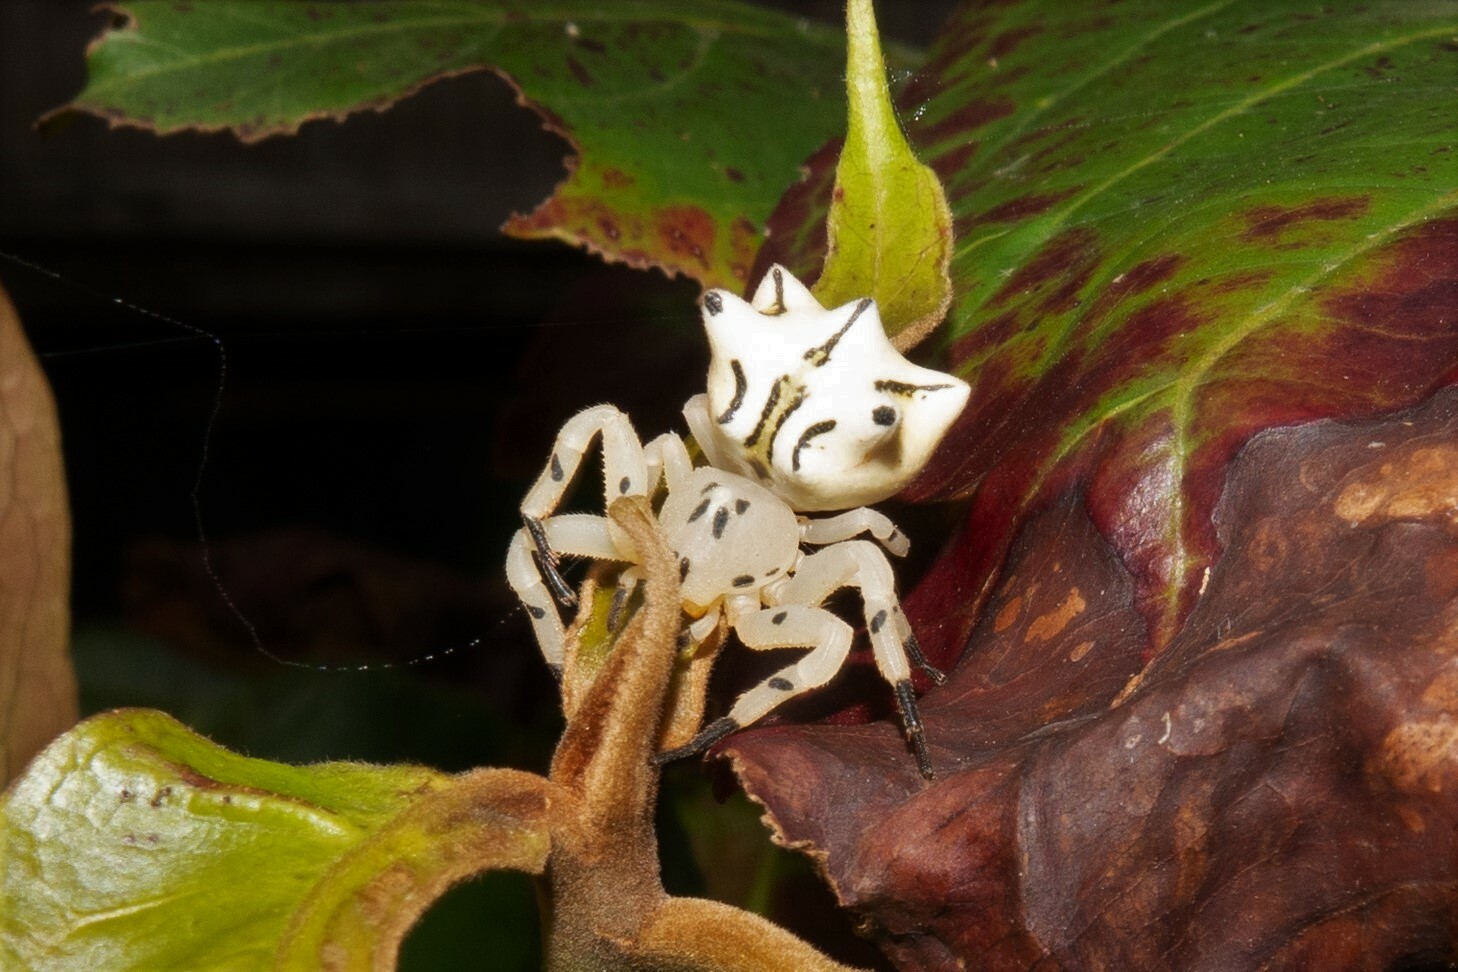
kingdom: Animalia
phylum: Arthropoda
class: Arachnida
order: Araneae
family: Thomisidae
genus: Epicadus
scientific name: Epicadus heterogaster
